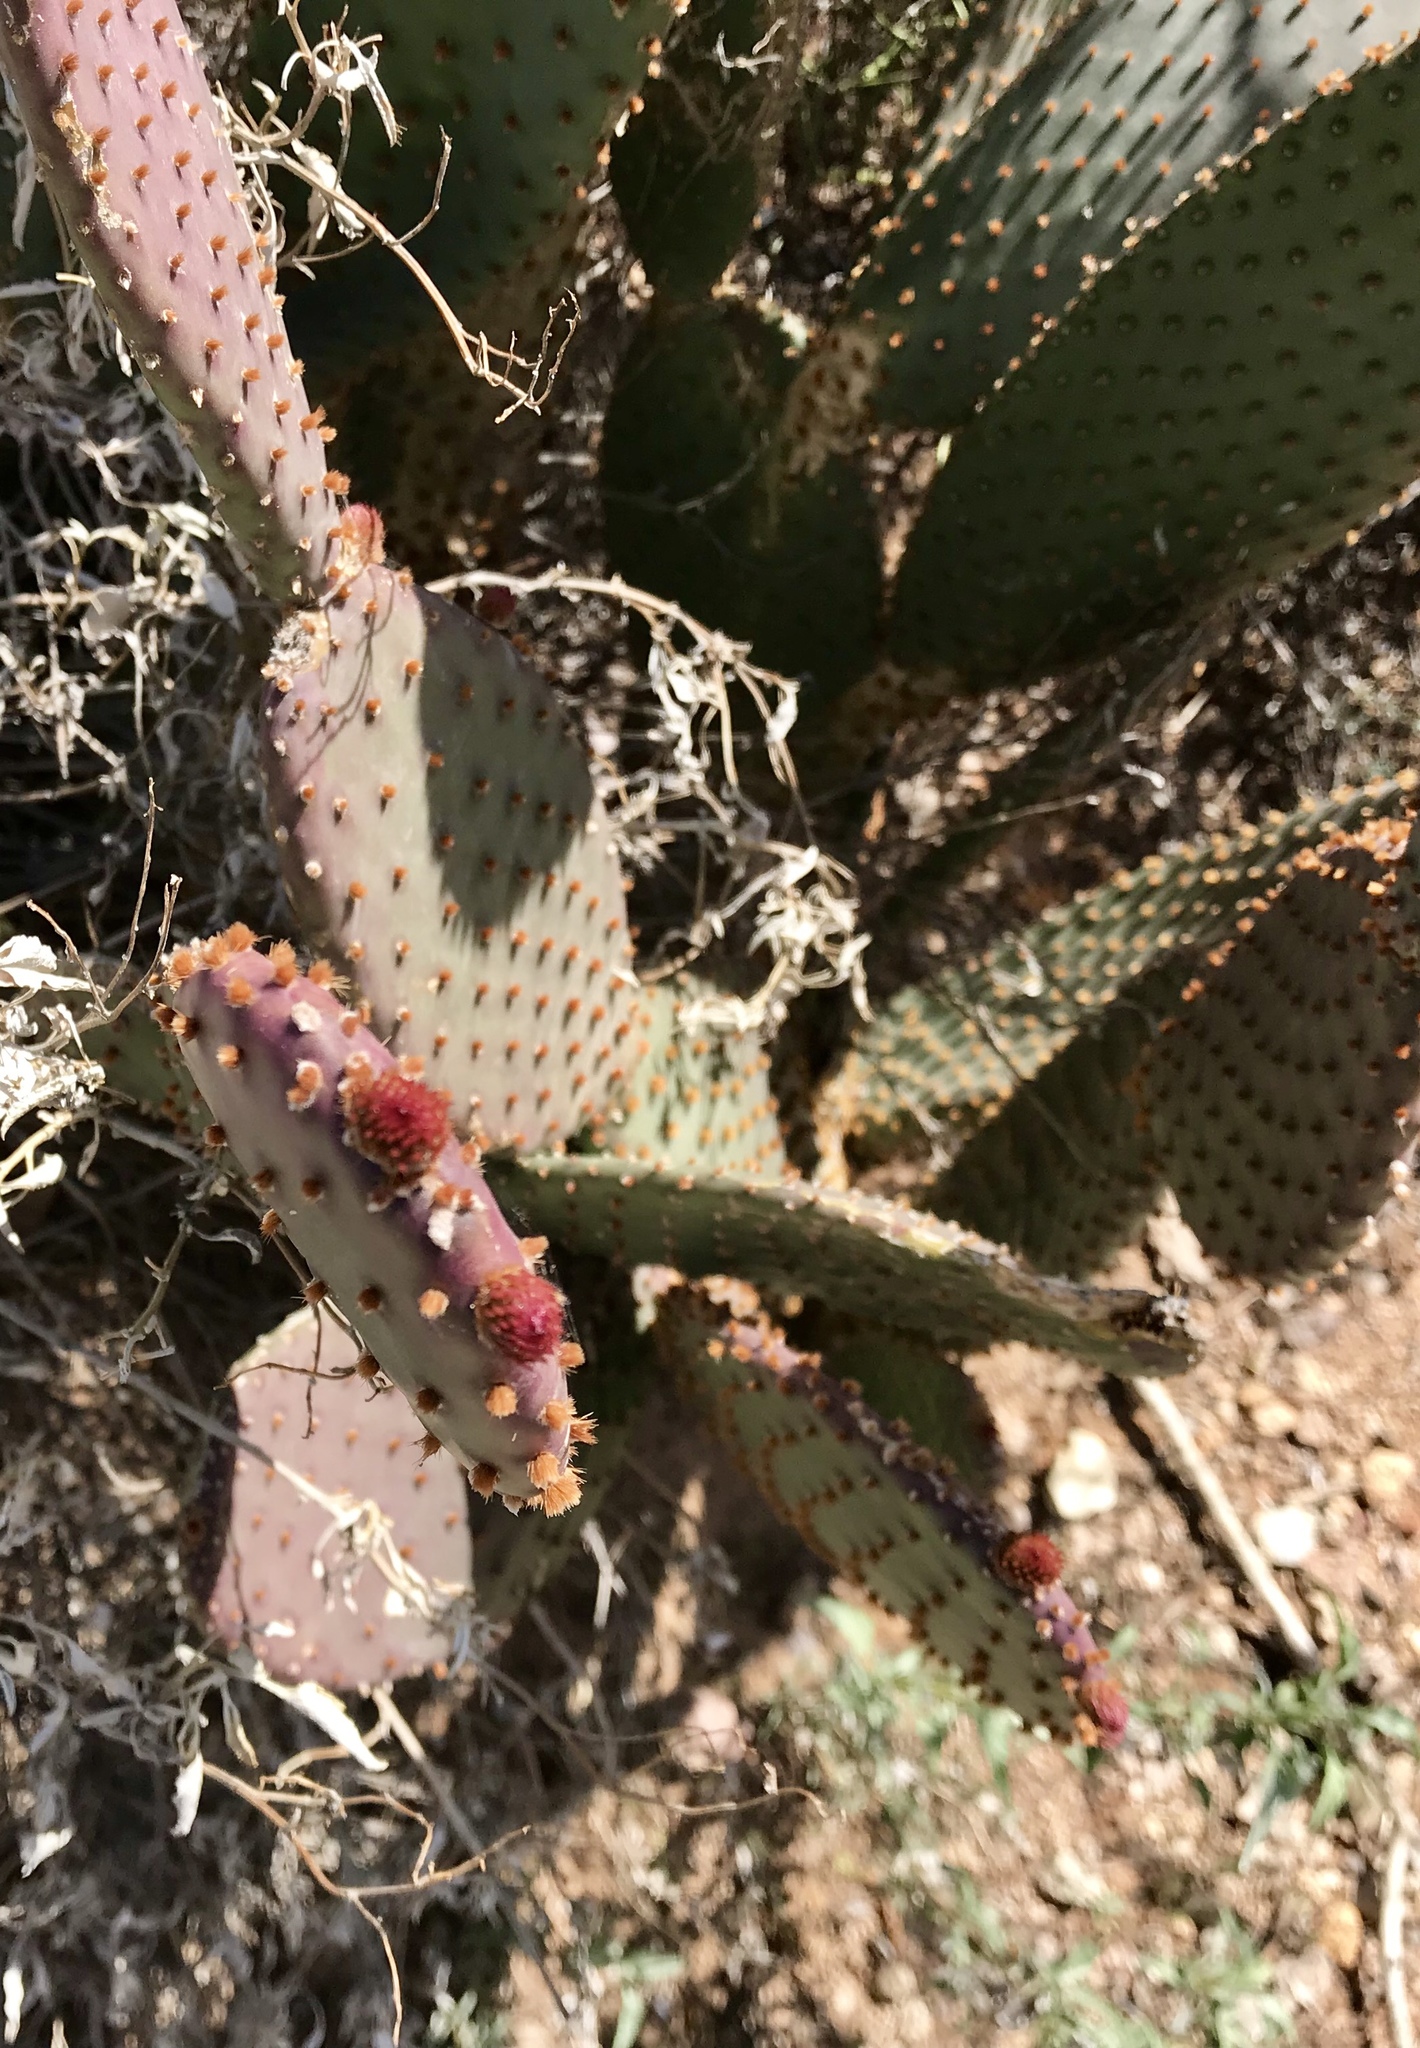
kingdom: Plantae
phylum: Tracheophyta
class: Magnoliopsida
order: Caryophyllales
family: Cactaceae
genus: Opuntia
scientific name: Opuntia rufida
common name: Blind pricklypear
